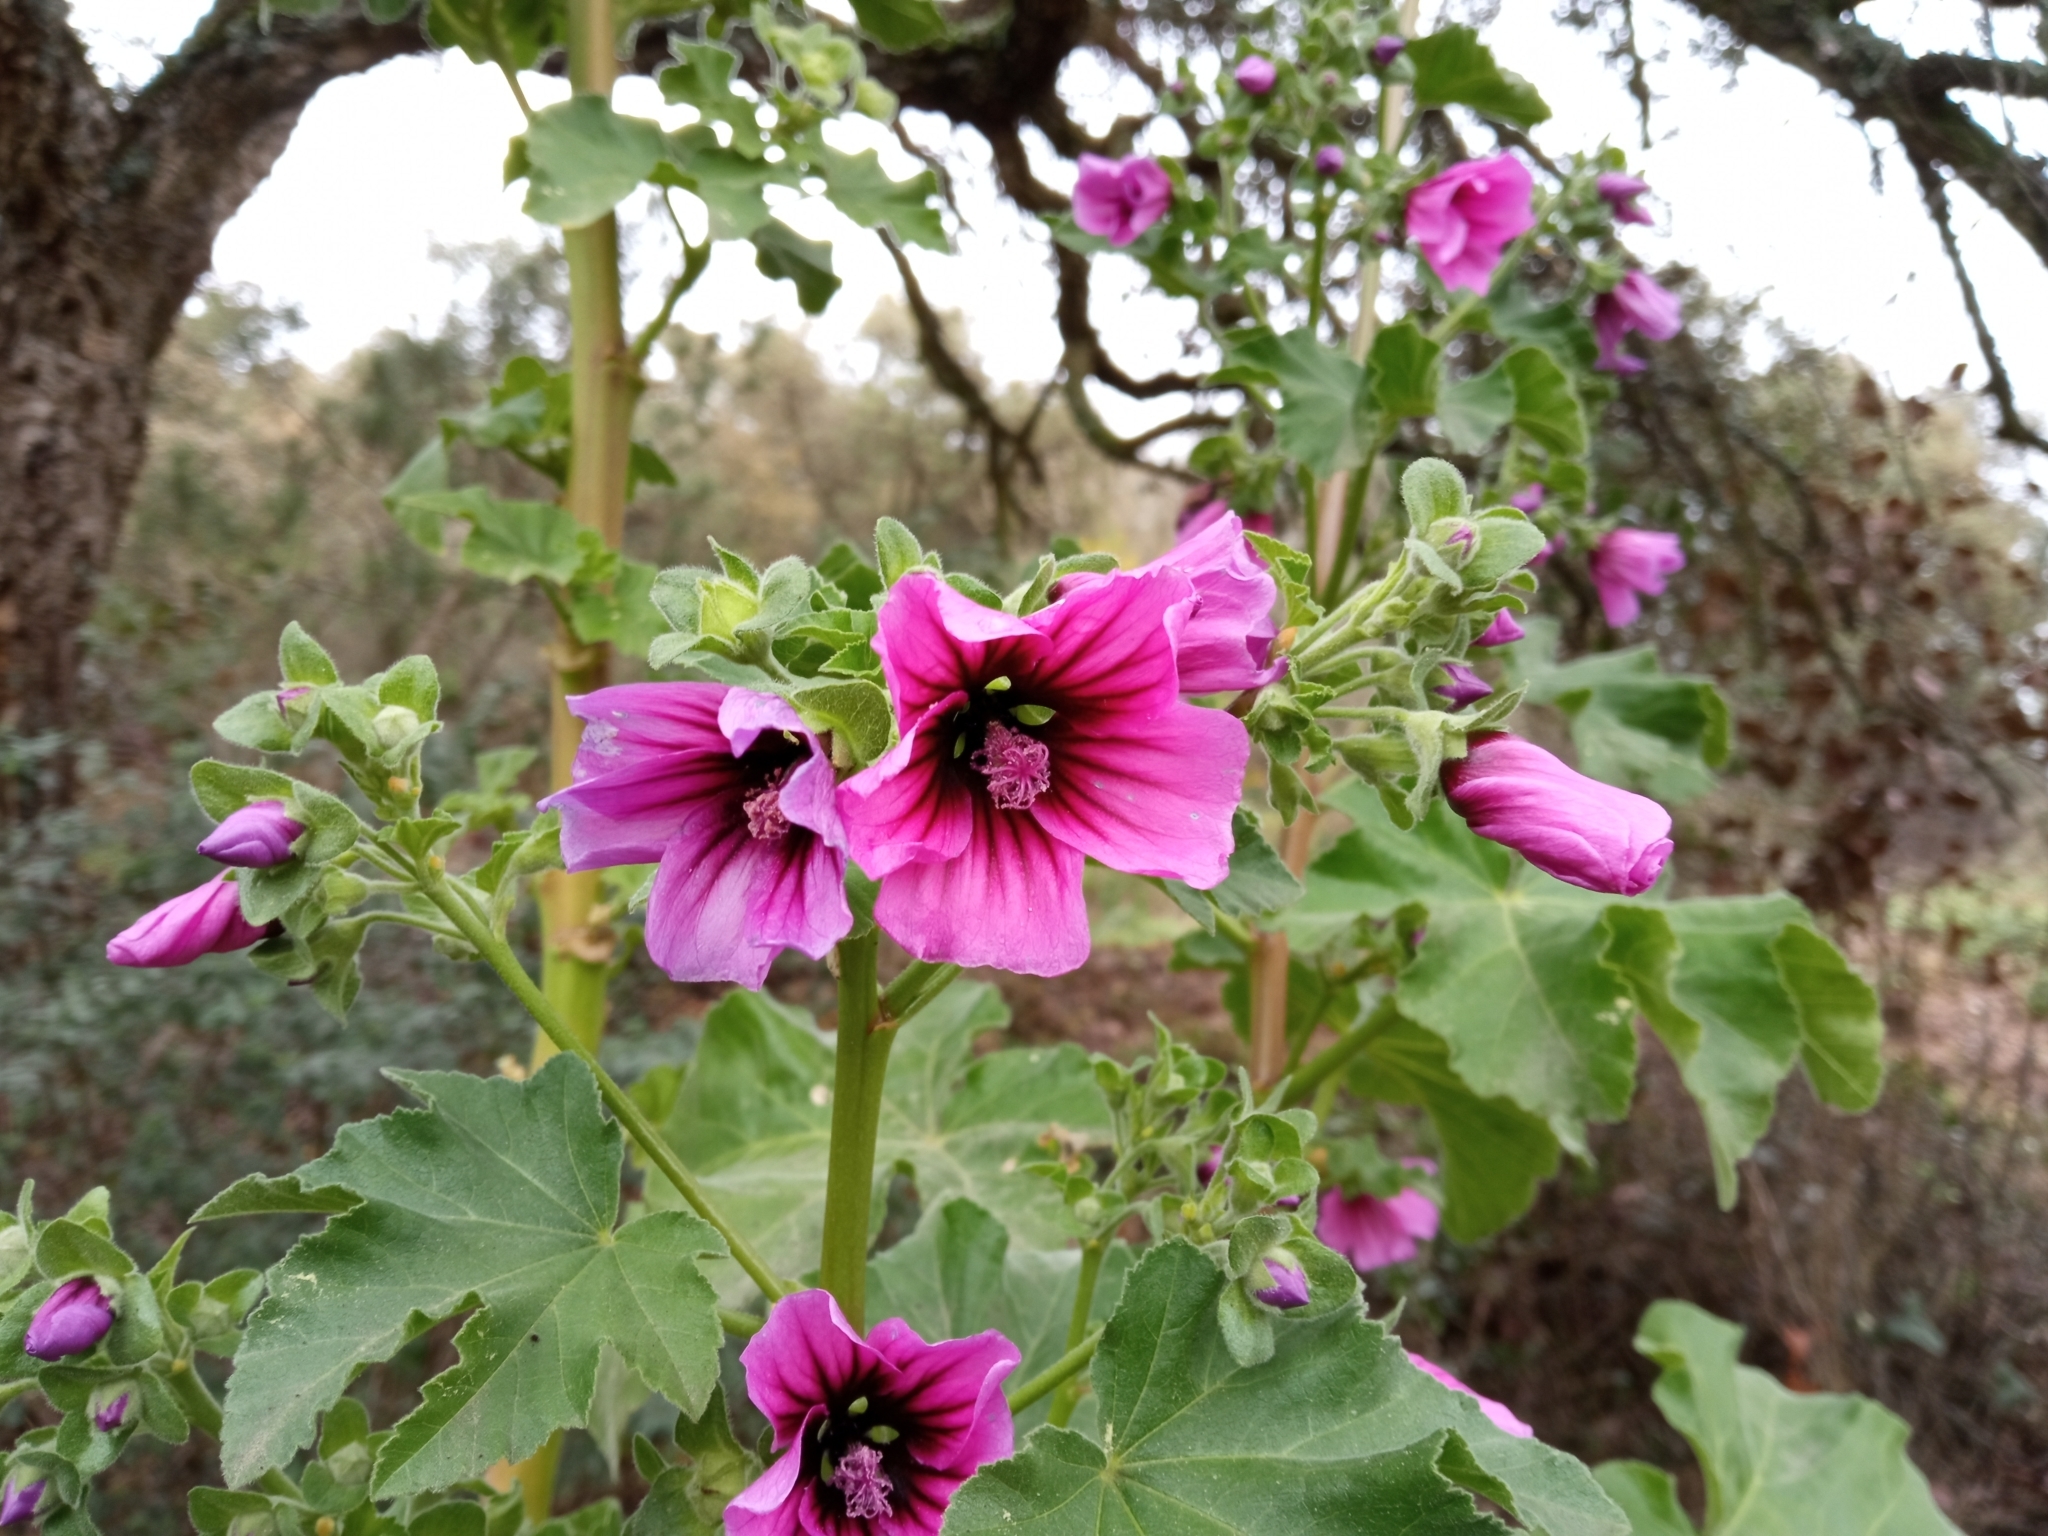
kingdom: Plantae
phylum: Tracheophyta
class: Magnoliopsida
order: Malvales
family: Malvaceae
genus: Malva
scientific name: Malva arborea
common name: Tree mallow
